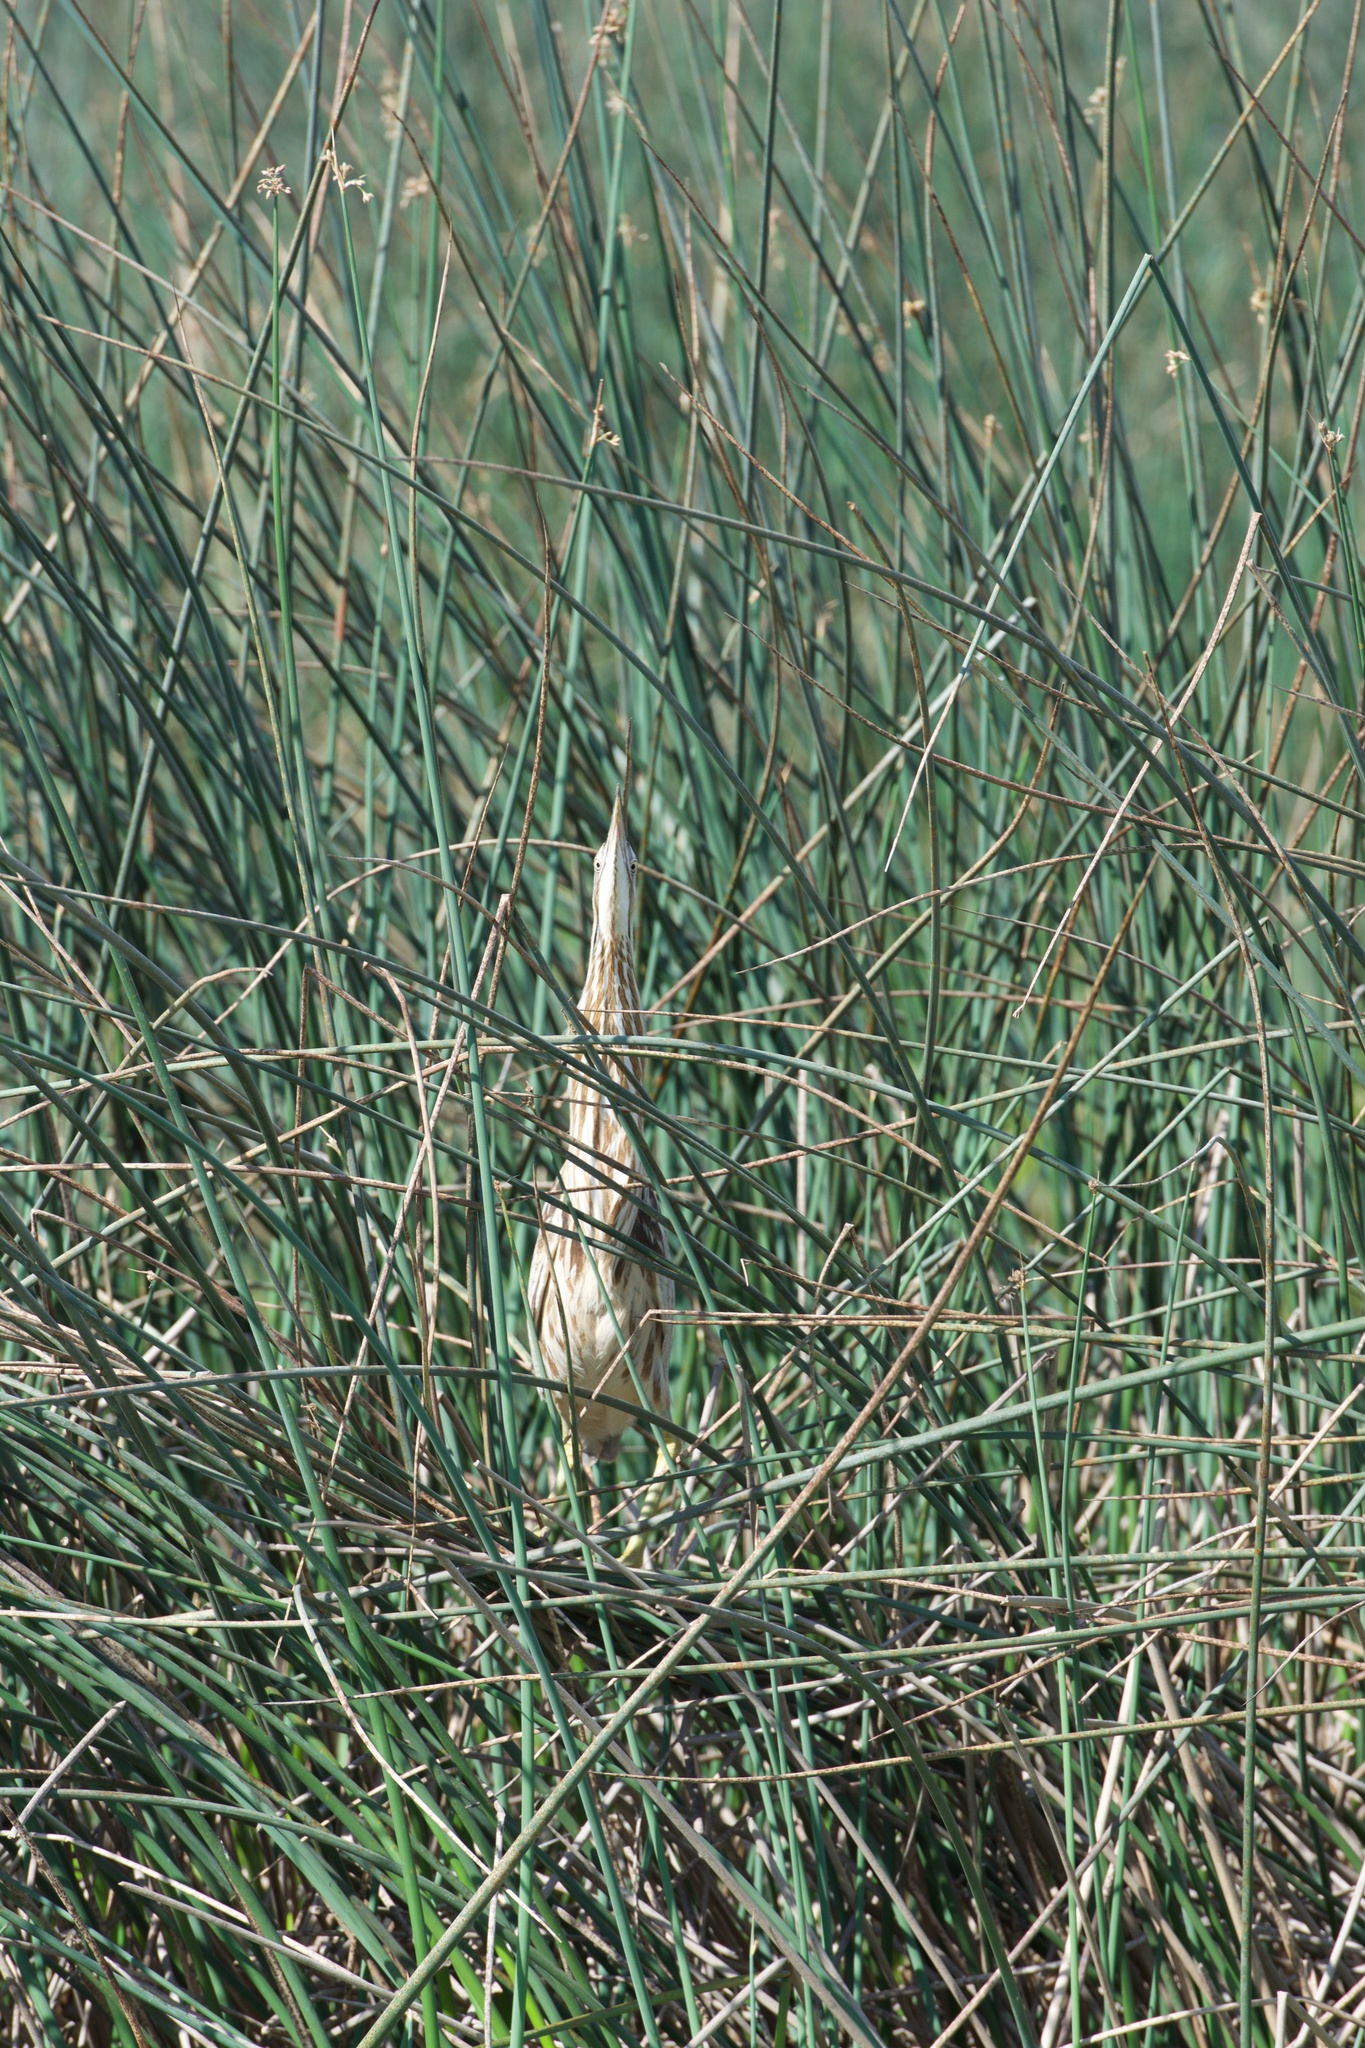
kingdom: Animalia
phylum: Chordata
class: Aves
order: Pelecaniformes
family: Ardeidae
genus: Botaurus
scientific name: Botaurus lentiginosus
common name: American bittern
